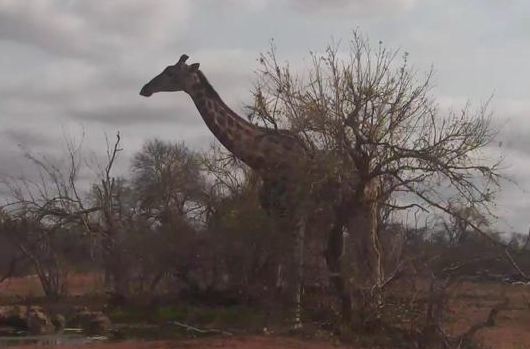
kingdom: Animalia
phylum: Chordata
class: Mammalia
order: Artiodactyla
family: Giraffidae
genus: Giraffa
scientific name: Giraffa giraffa
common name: Southern giraffe
